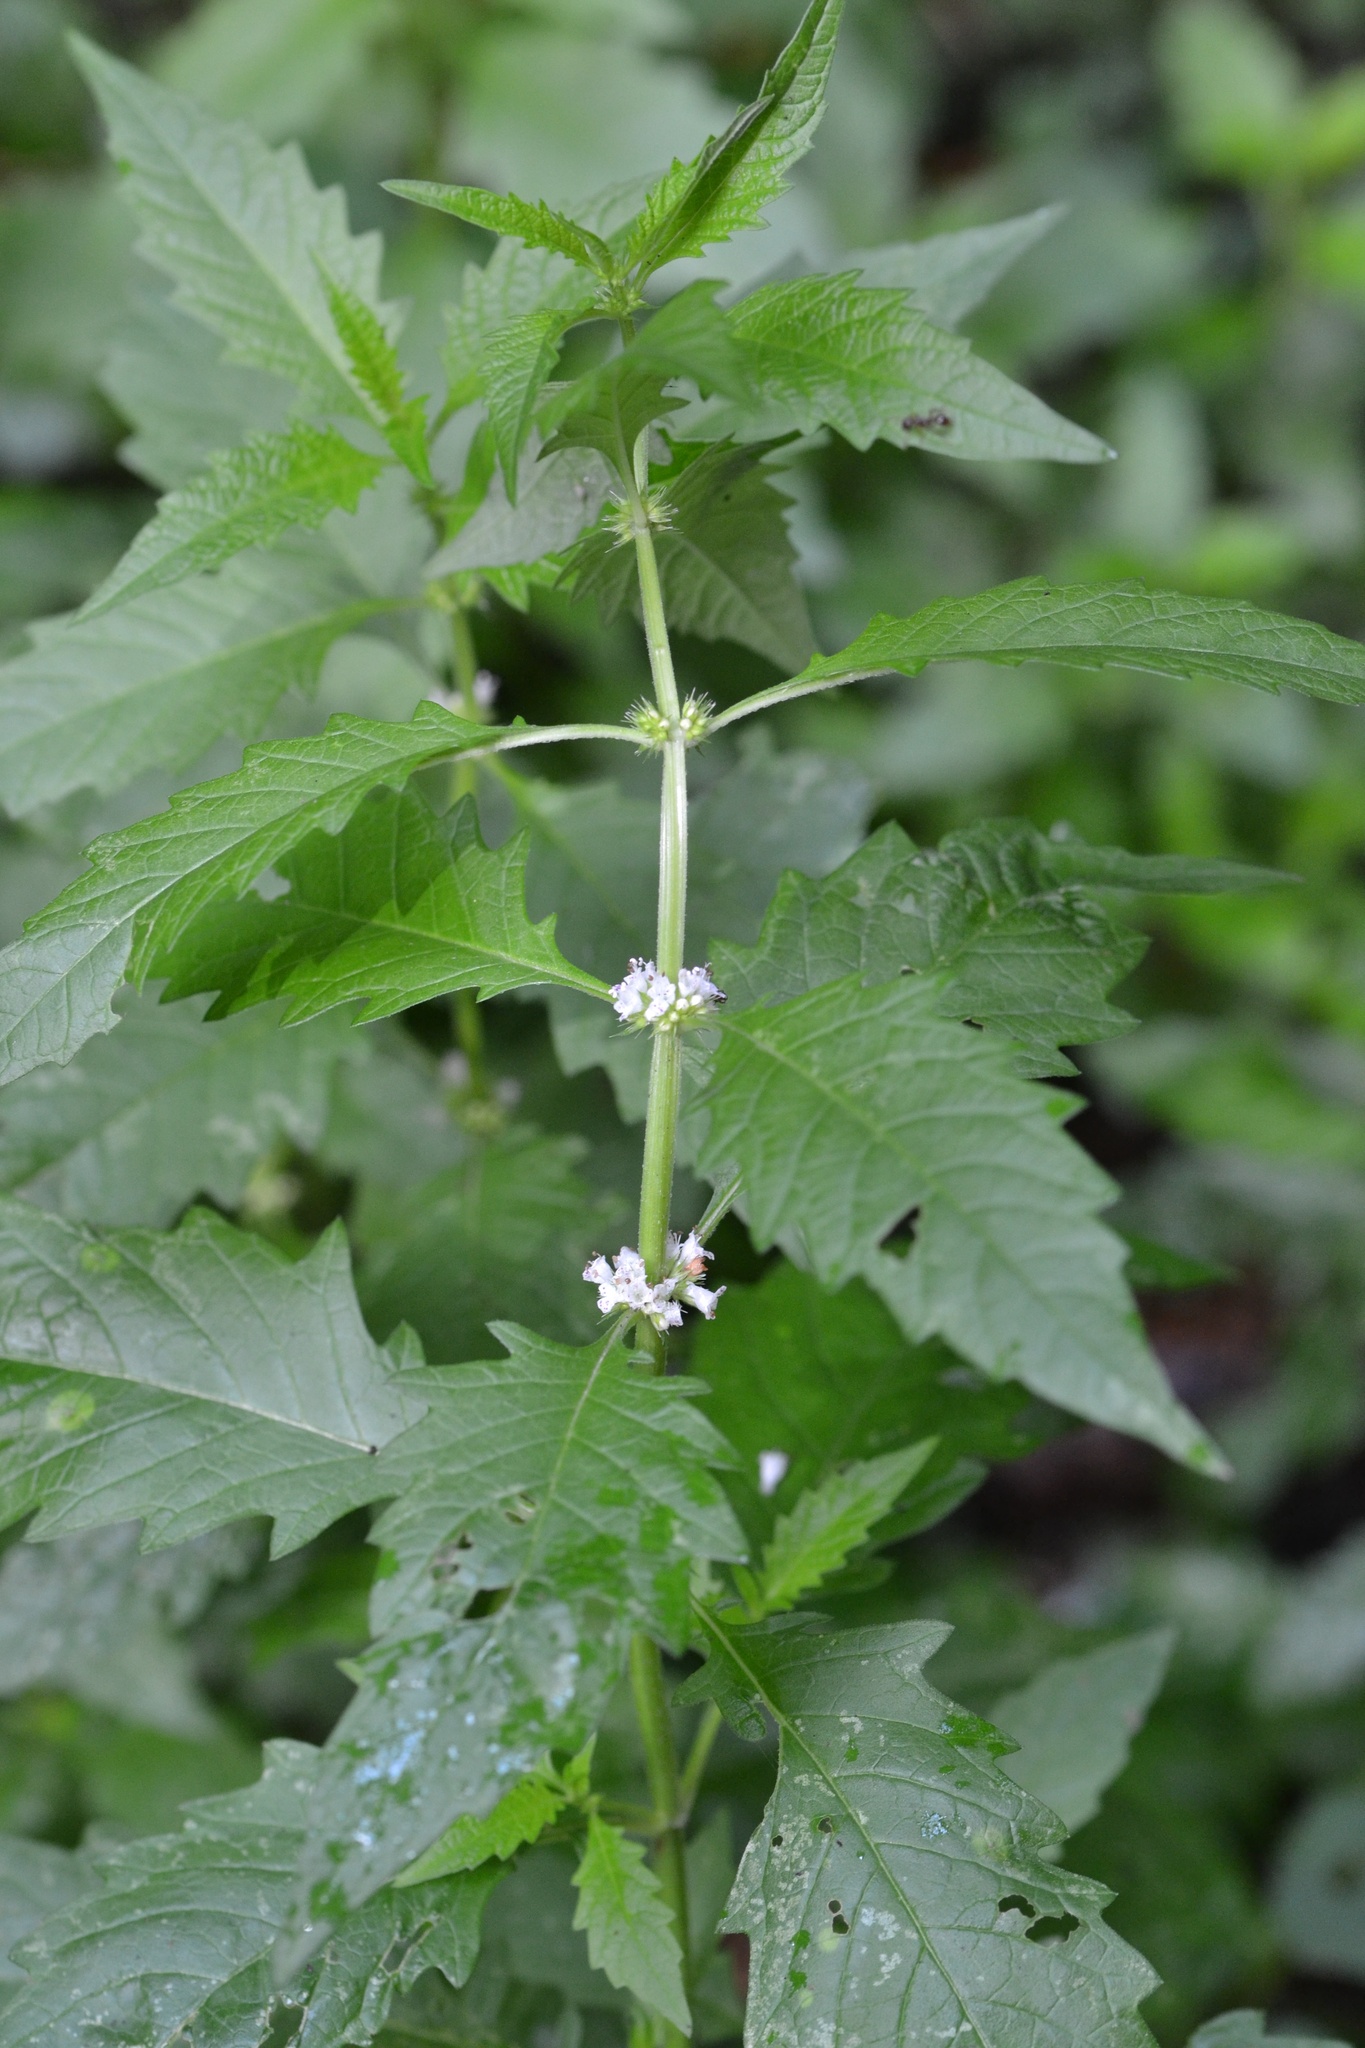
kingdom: Plantae
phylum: Tracheophyta
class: Magnoliopsida
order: Lamiales
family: Lamiaceae
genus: Lycopus
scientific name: Lycopus europaeus
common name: European bugleweed
